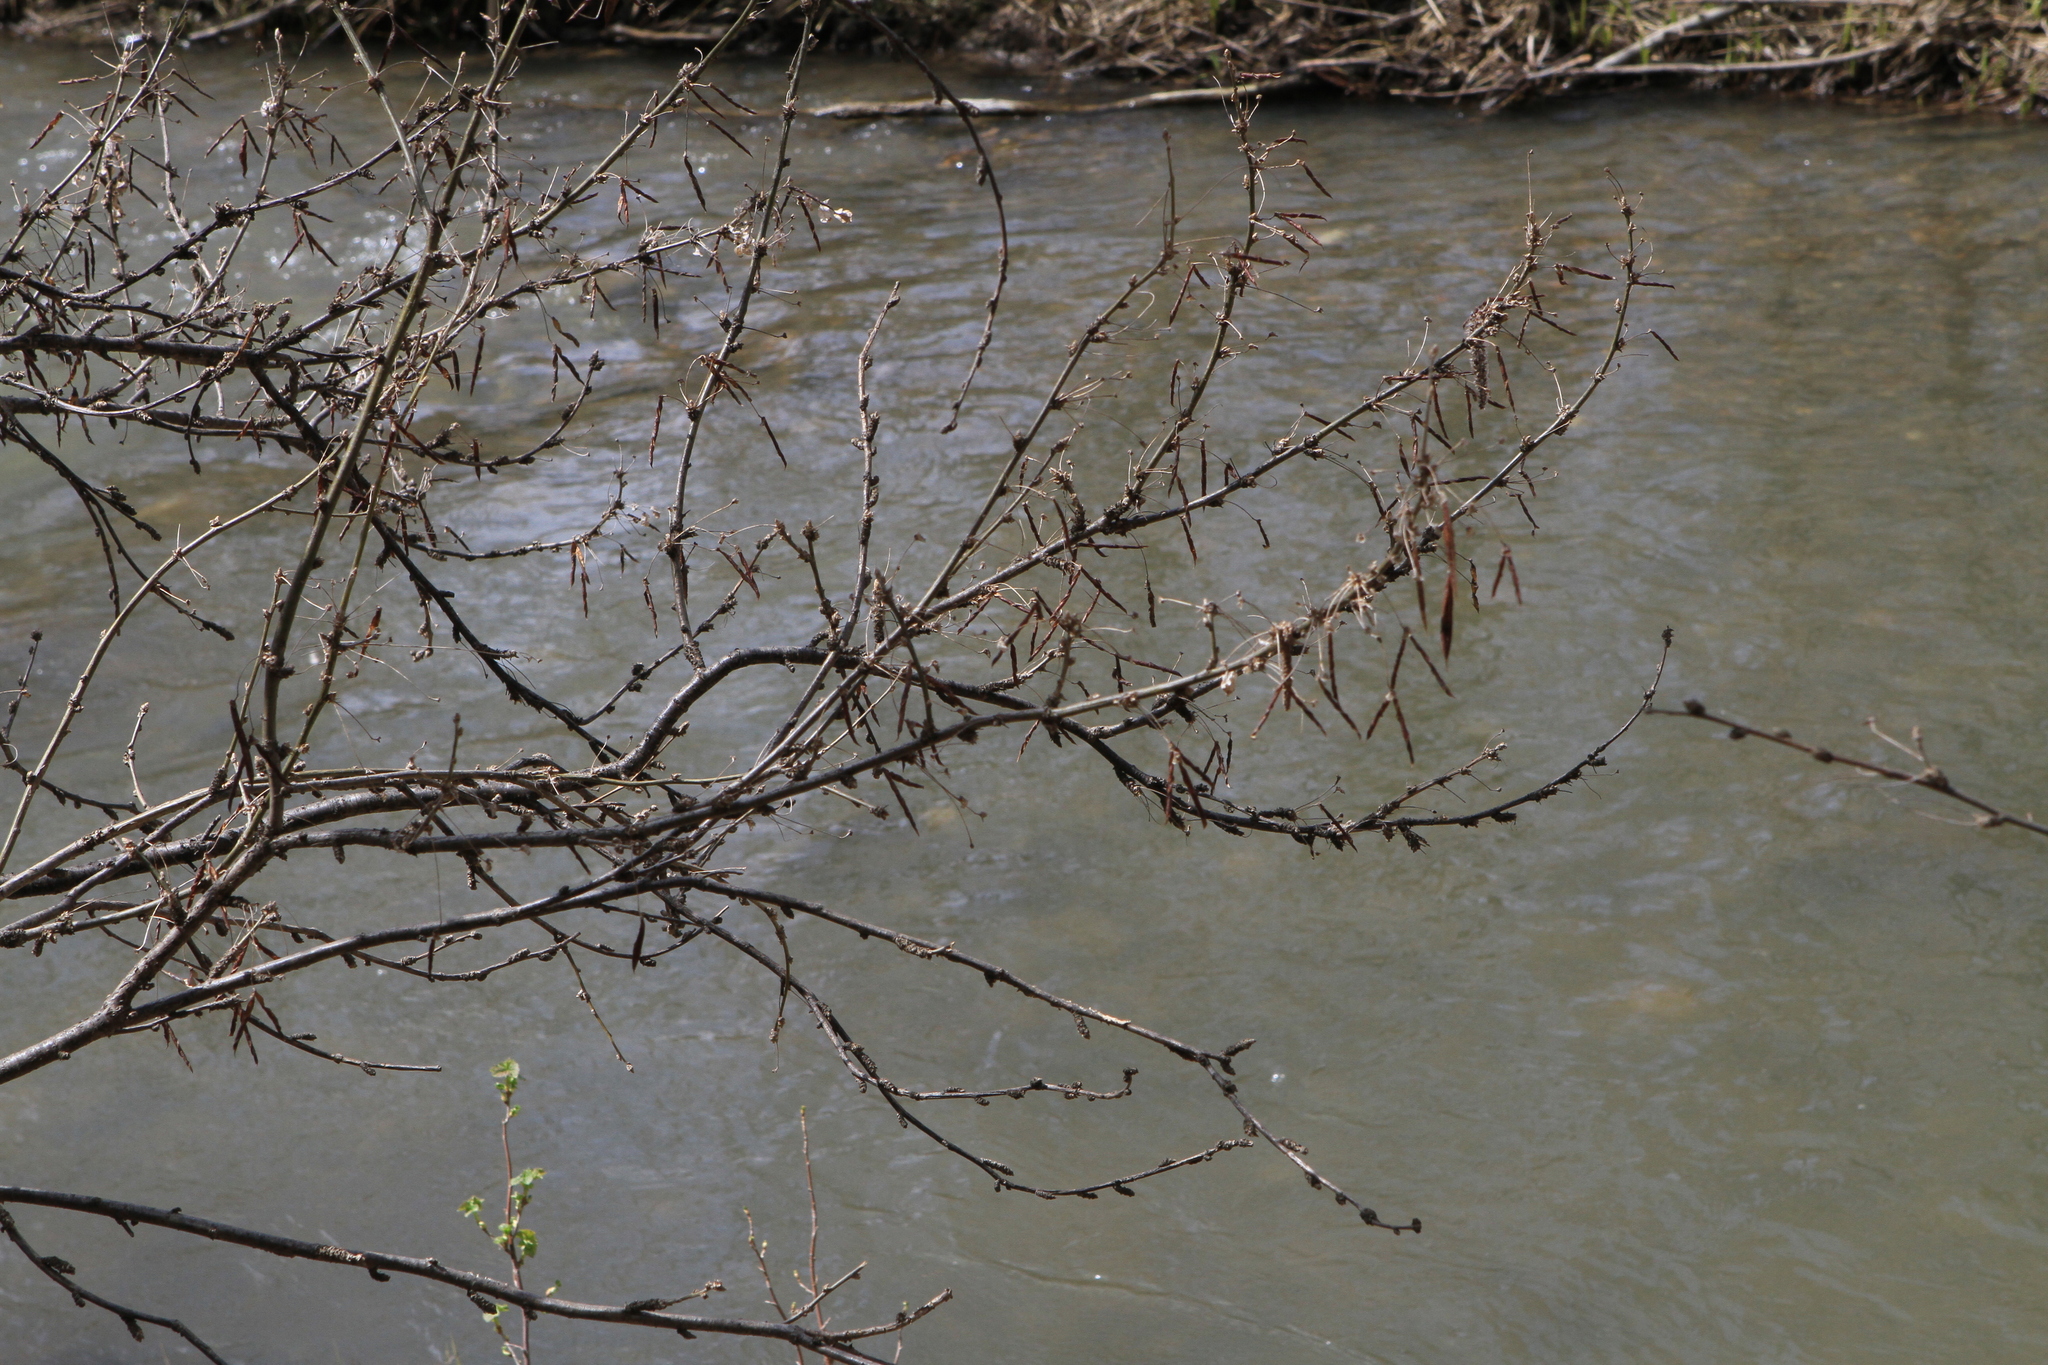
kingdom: Plantae
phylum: Tracheophyta
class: Magnoliopsida
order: Fabales
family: Fabaceae
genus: Caragana
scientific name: Caragana arborescens
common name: Siberian peashrub
